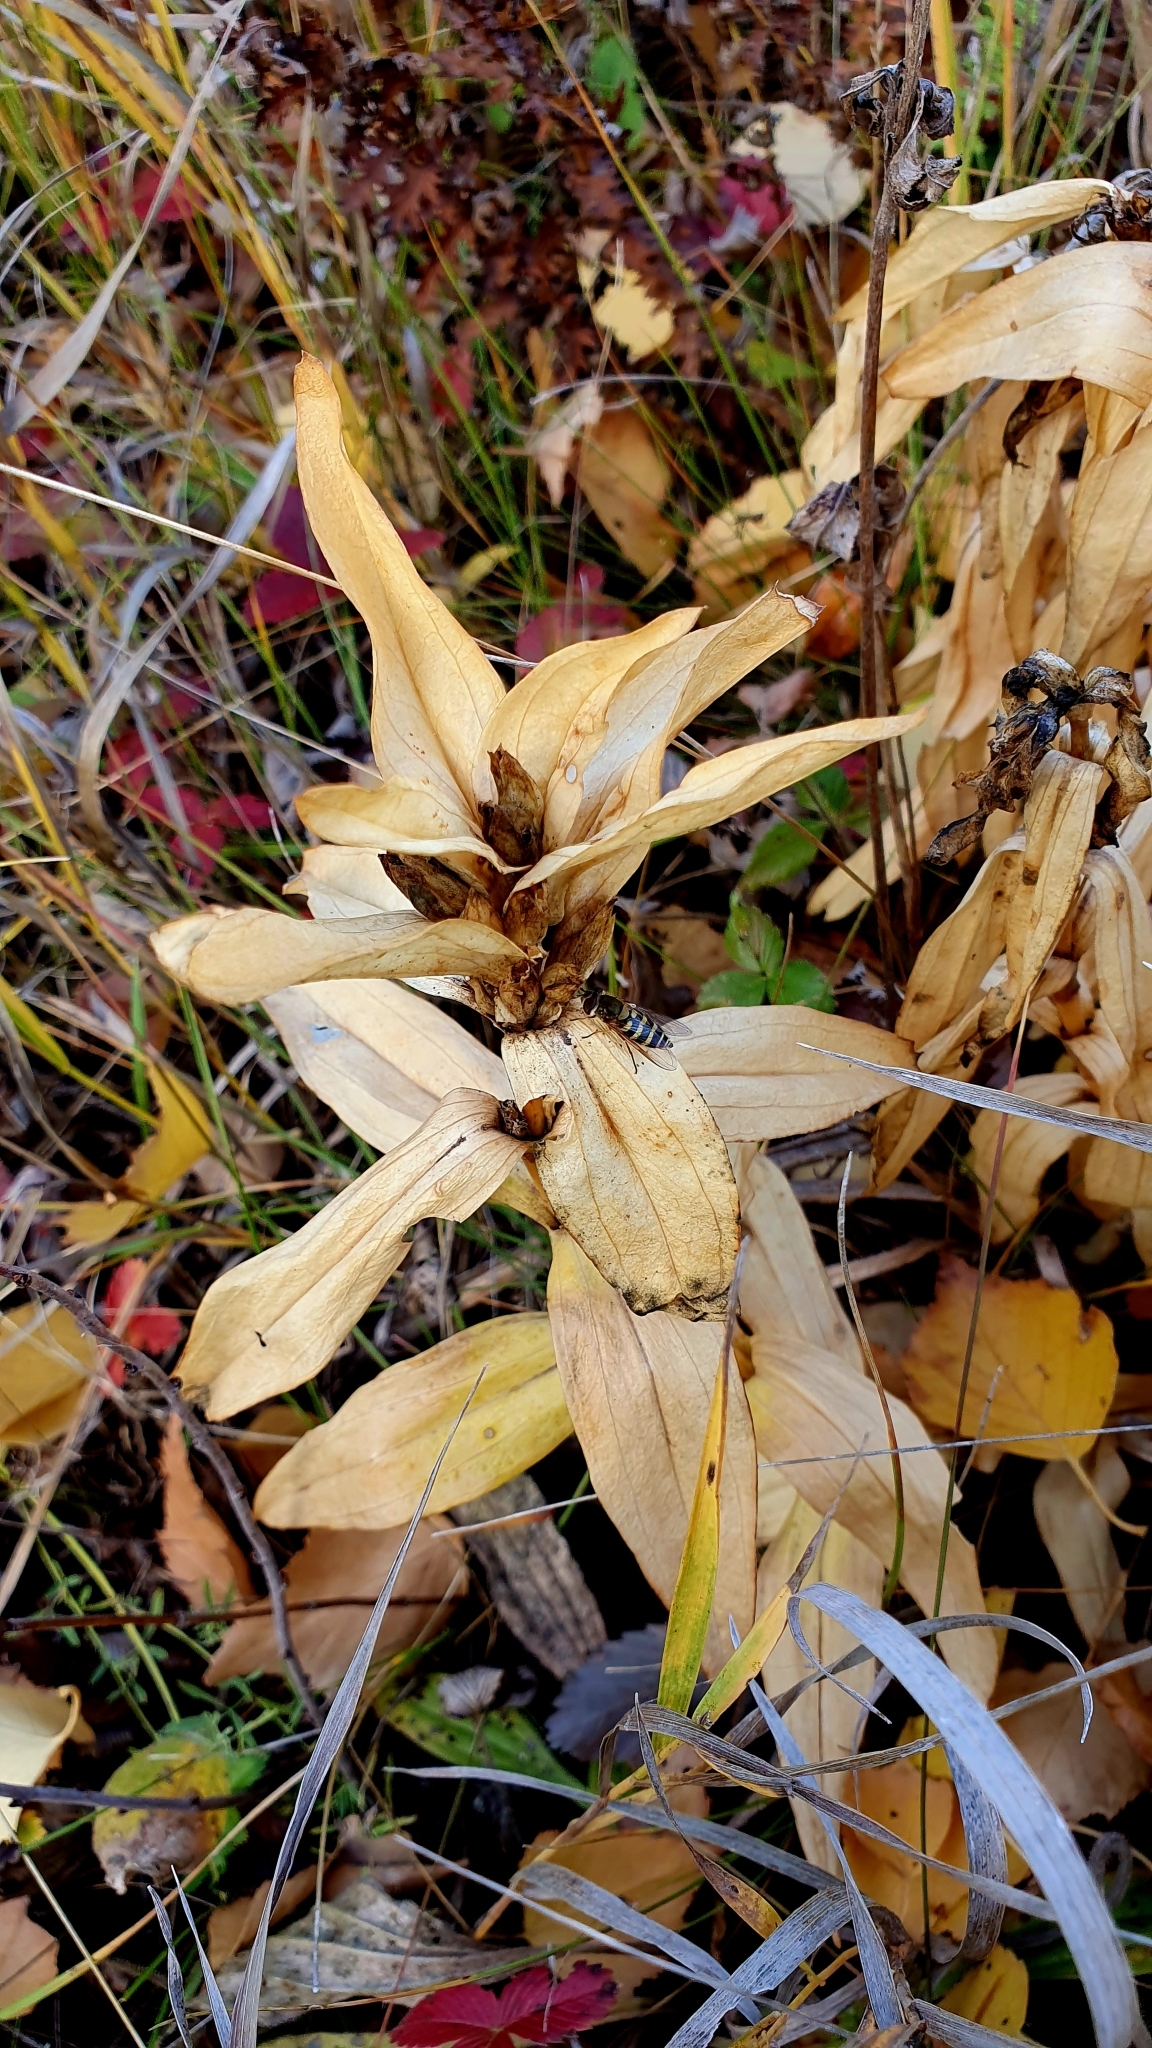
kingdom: Plantae
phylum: Tracheophyta
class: Magnoliopsida
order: Gentianales
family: Gentianaceae
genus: Gentiana
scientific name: Gentiana cruciata
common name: Cross gentian
